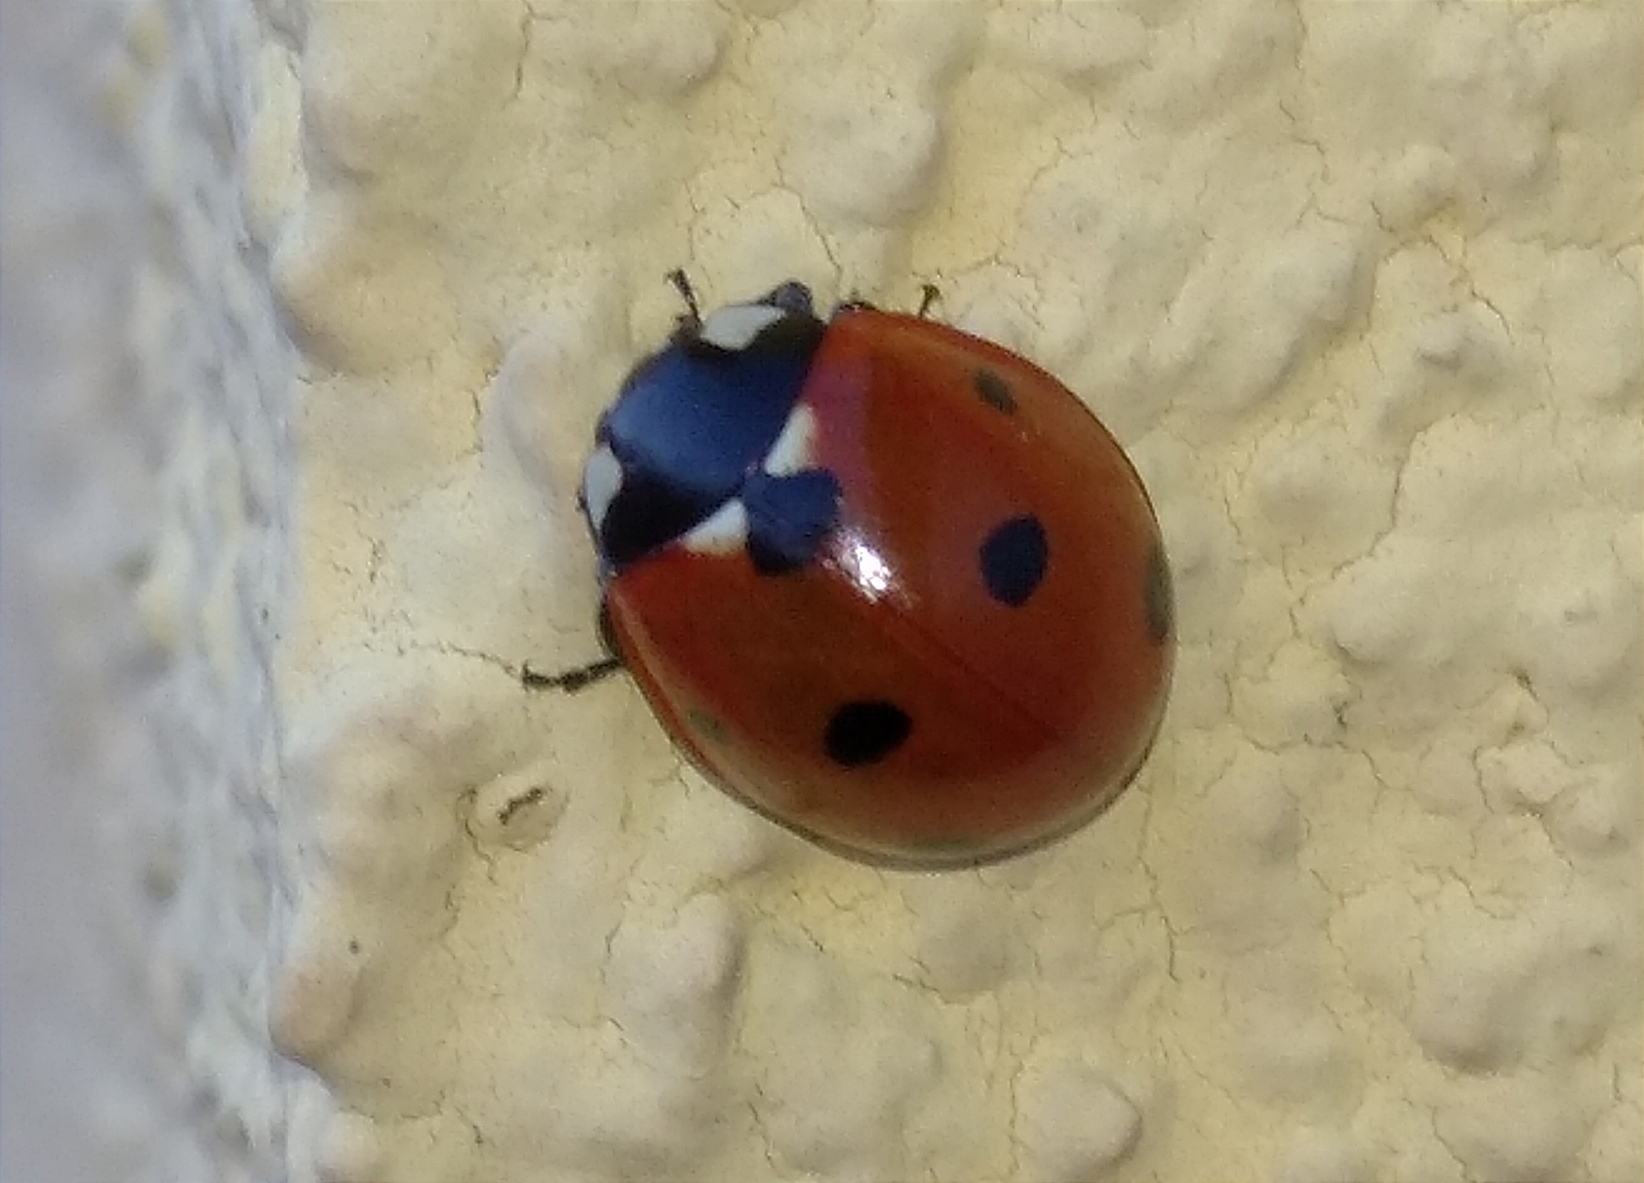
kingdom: Animalia
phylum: Arthropoda
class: Insecta
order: Coleoptera
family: Coccinellidae
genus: Coccinella
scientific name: Coccinella septempunctata
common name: Sevenspotted lady beetle
